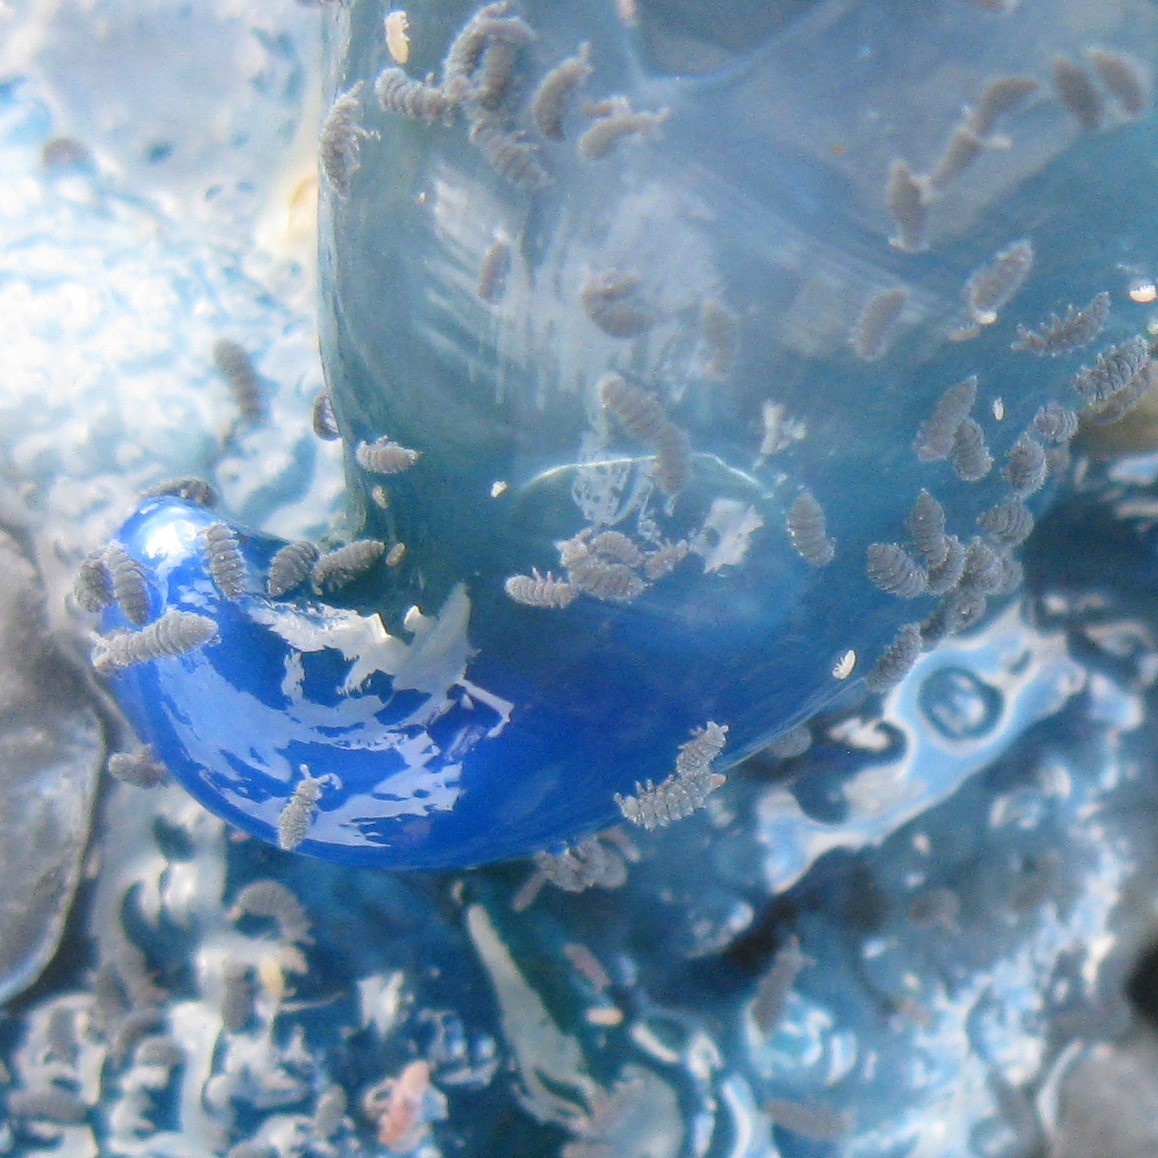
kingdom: Animalia
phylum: Arthropoda
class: Collembola
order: Poduromorpha
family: Neanuridae
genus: Anurida
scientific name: Anurida maritima
